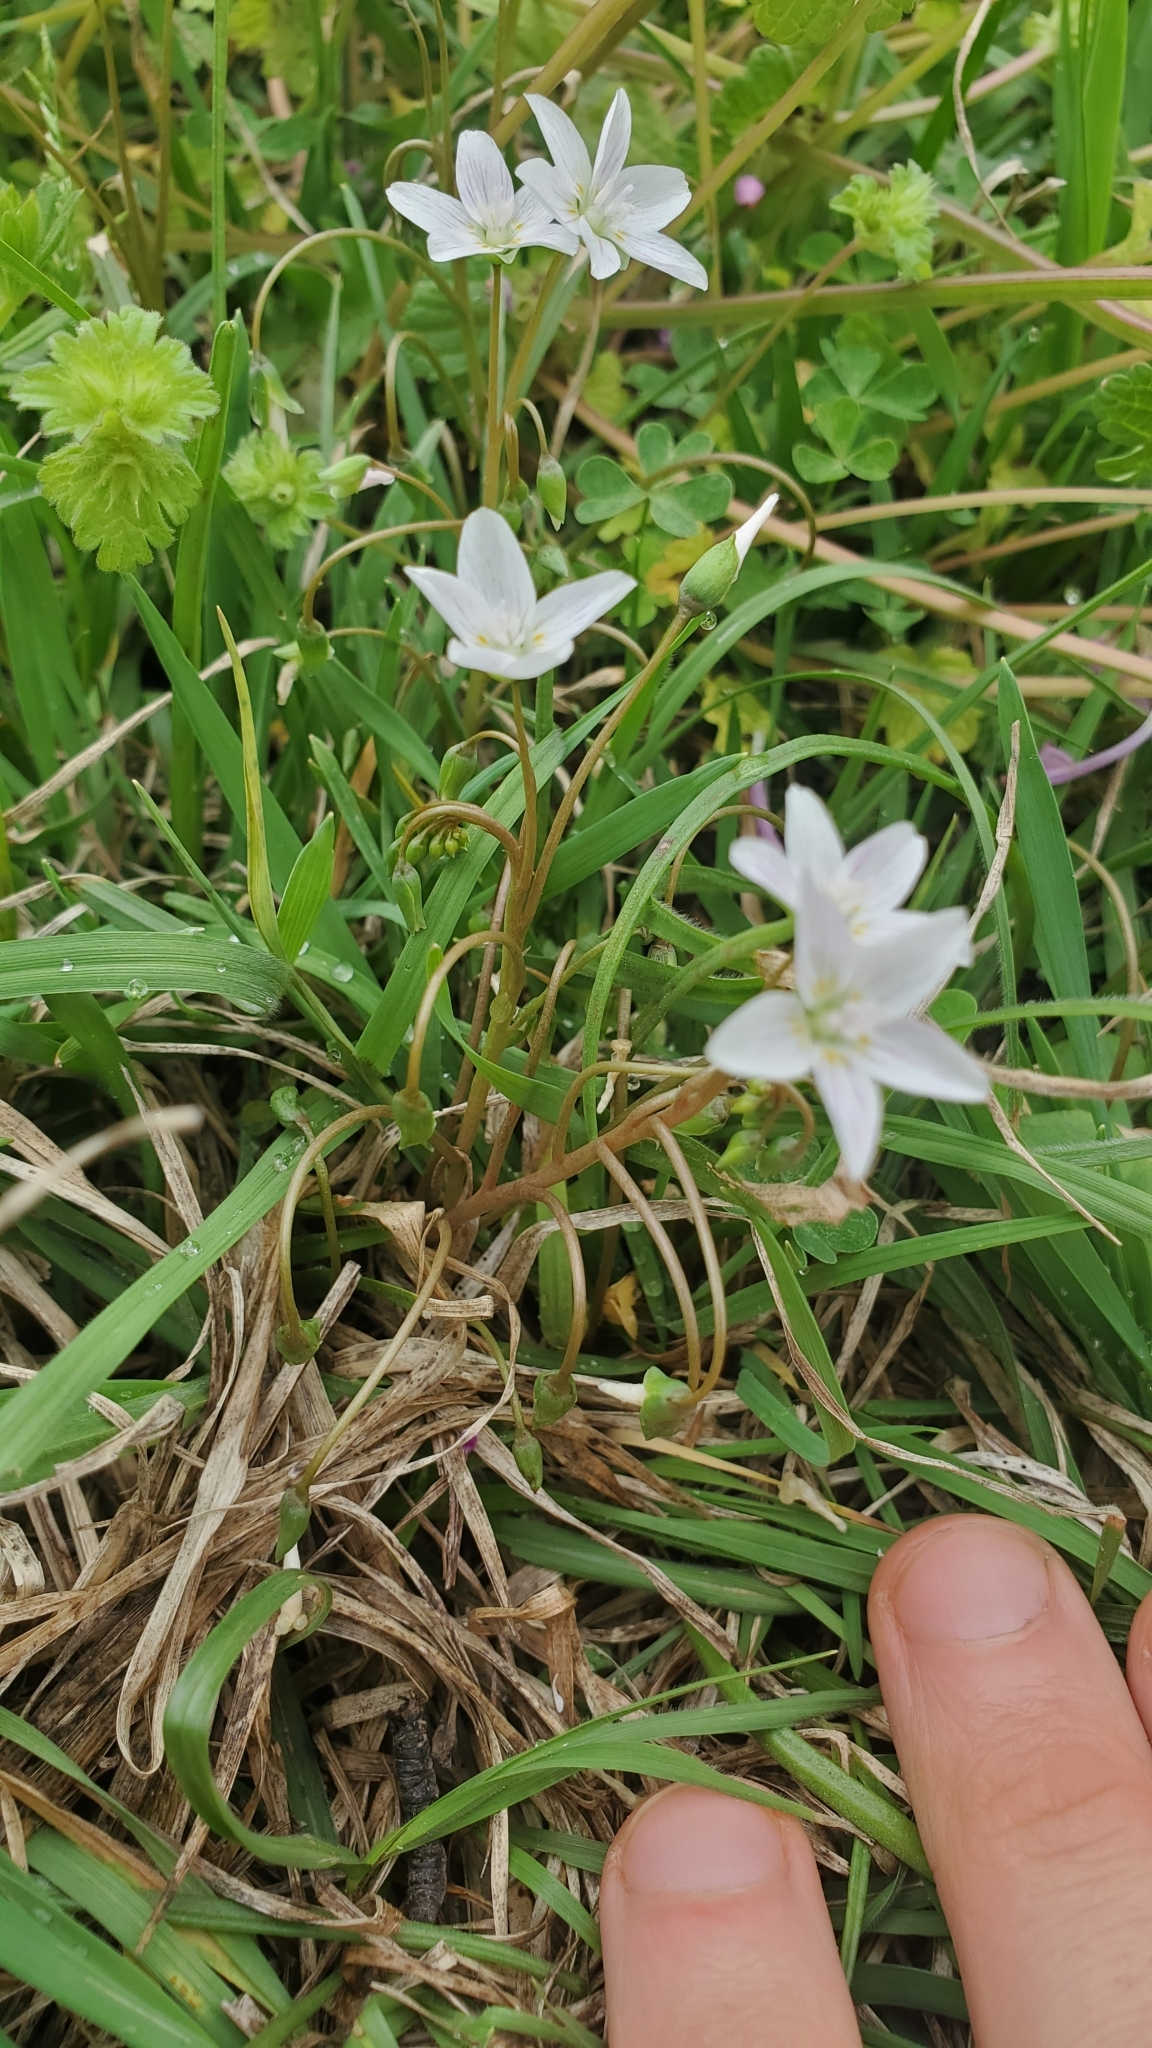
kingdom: Plantae
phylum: Tracheophyta
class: Magnoliopsida
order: Caryophyllales
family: Montiaceae
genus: Claytonia
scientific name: Claytonia virginica
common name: Virginia springbeauty
